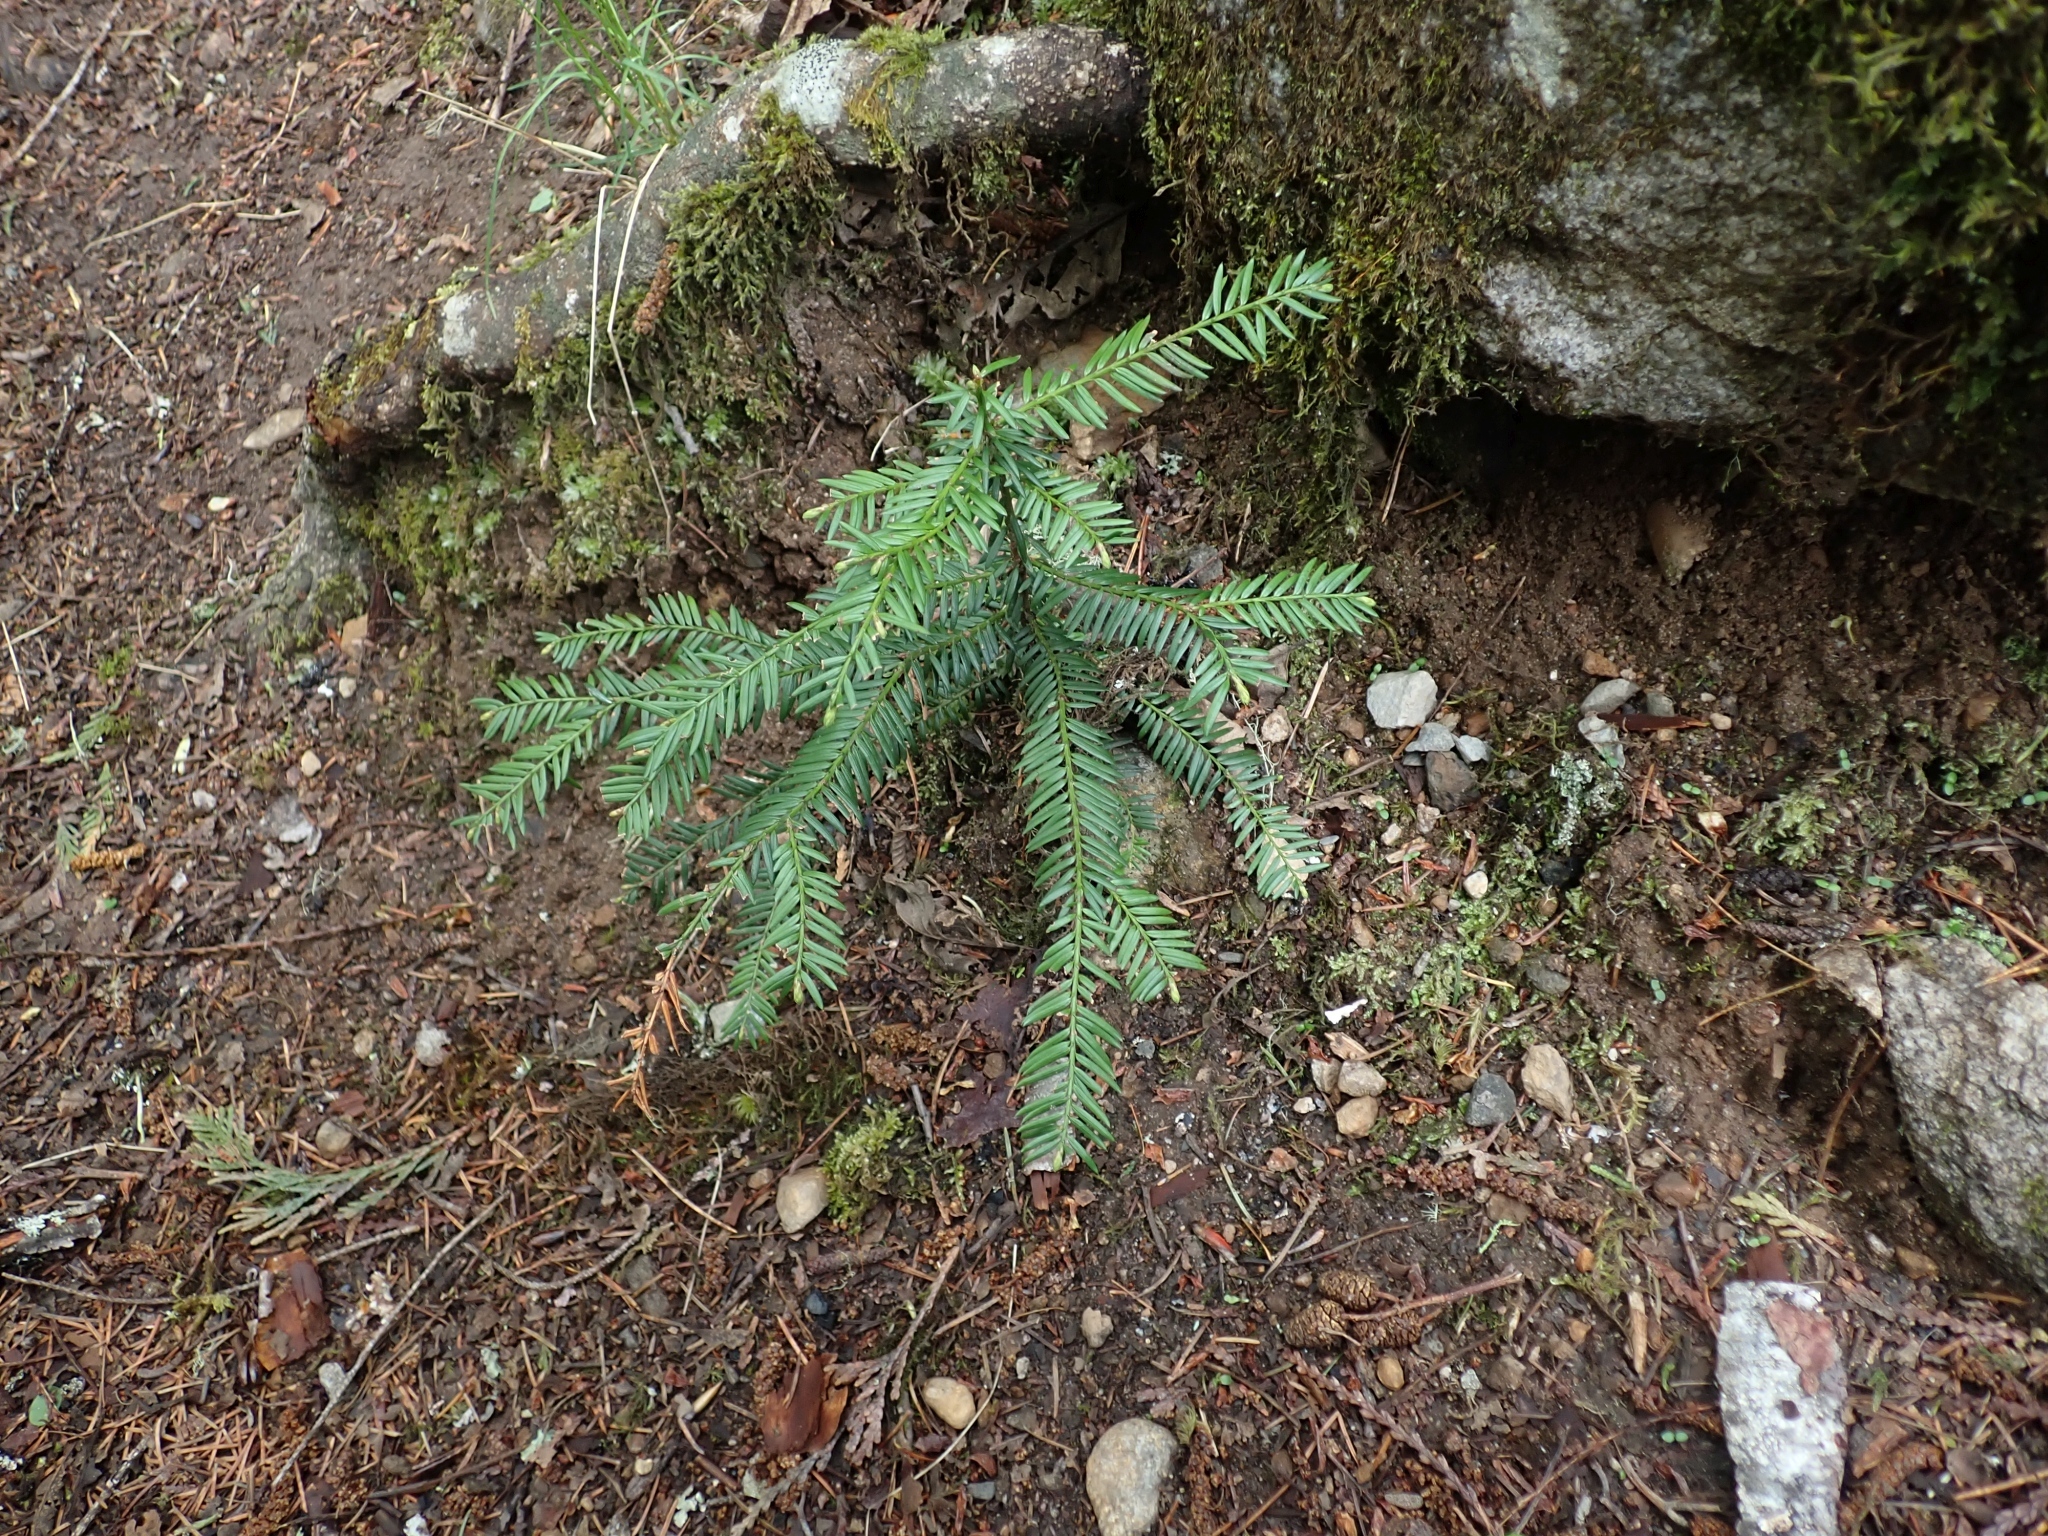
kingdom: Plantae
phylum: Tracheophyta
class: Pinopsida
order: Pinales
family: Taxaceae
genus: Taxus
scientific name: Taxus brevifolia
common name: Pacific yew
